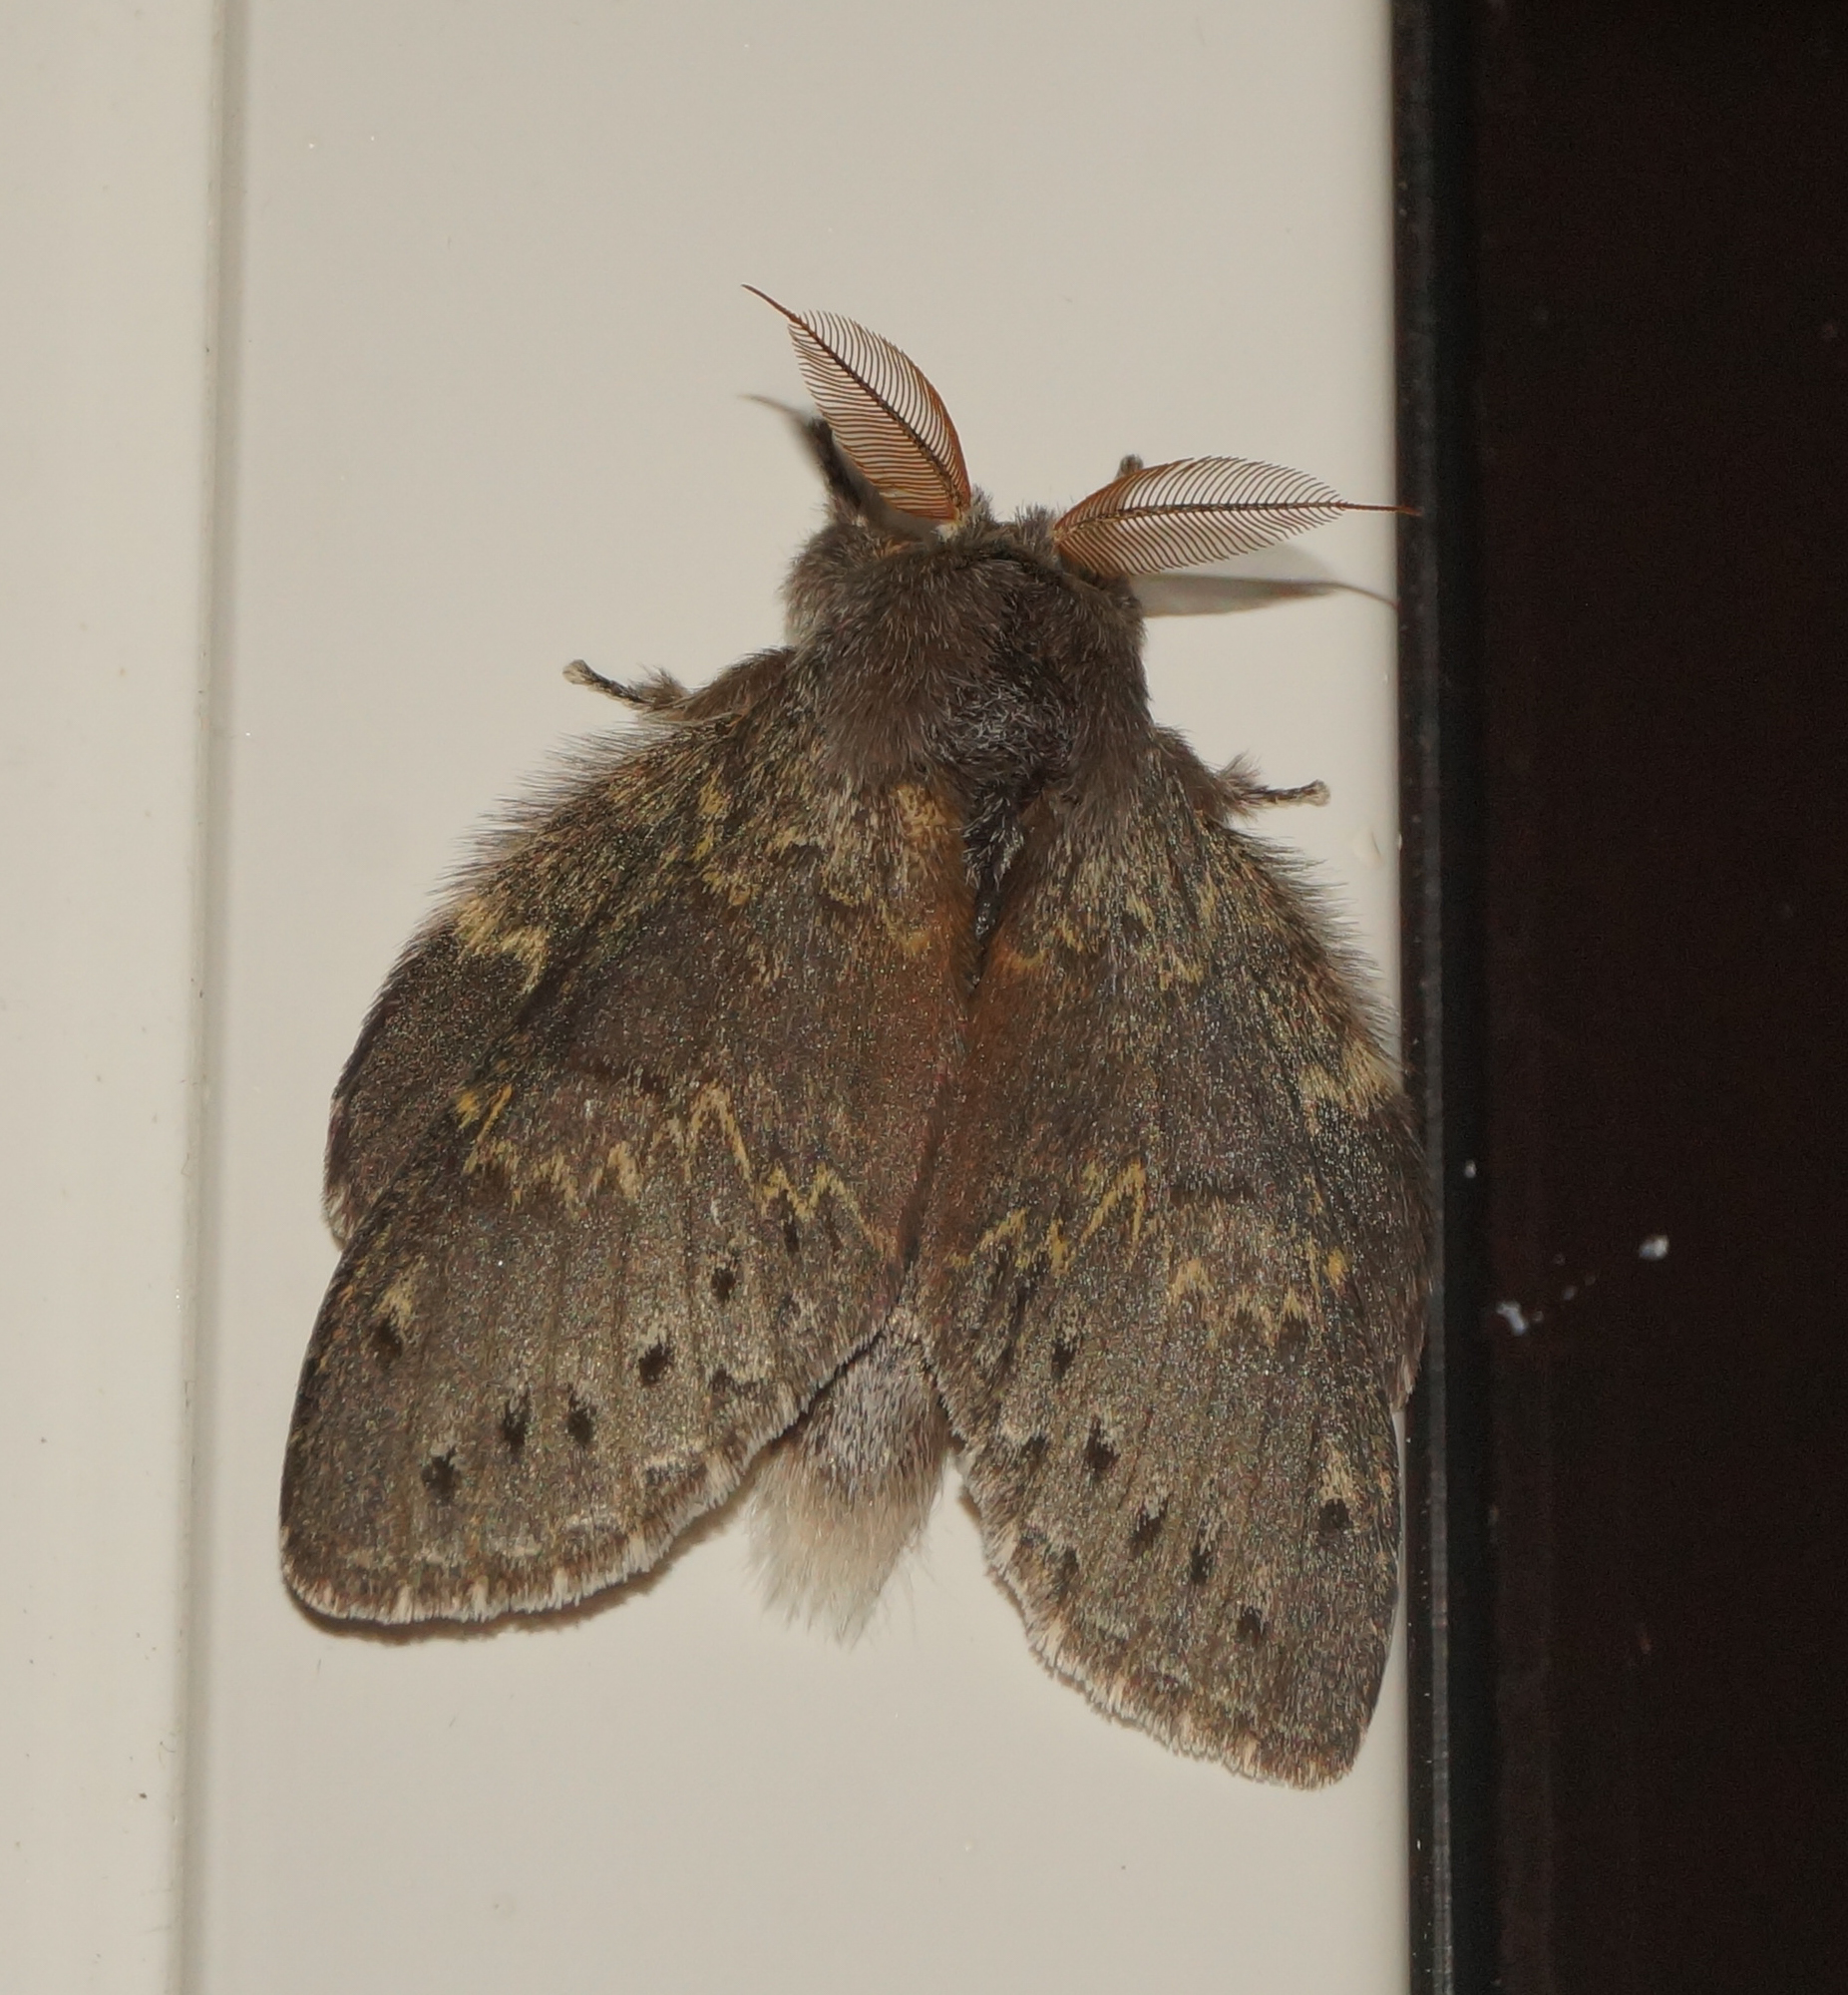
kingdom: Animalia
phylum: Arthropoda
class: Insecta
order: Lepidoptera
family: Notodontidae
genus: Stauropus
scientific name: Stauropus fagi
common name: Lobster moth
